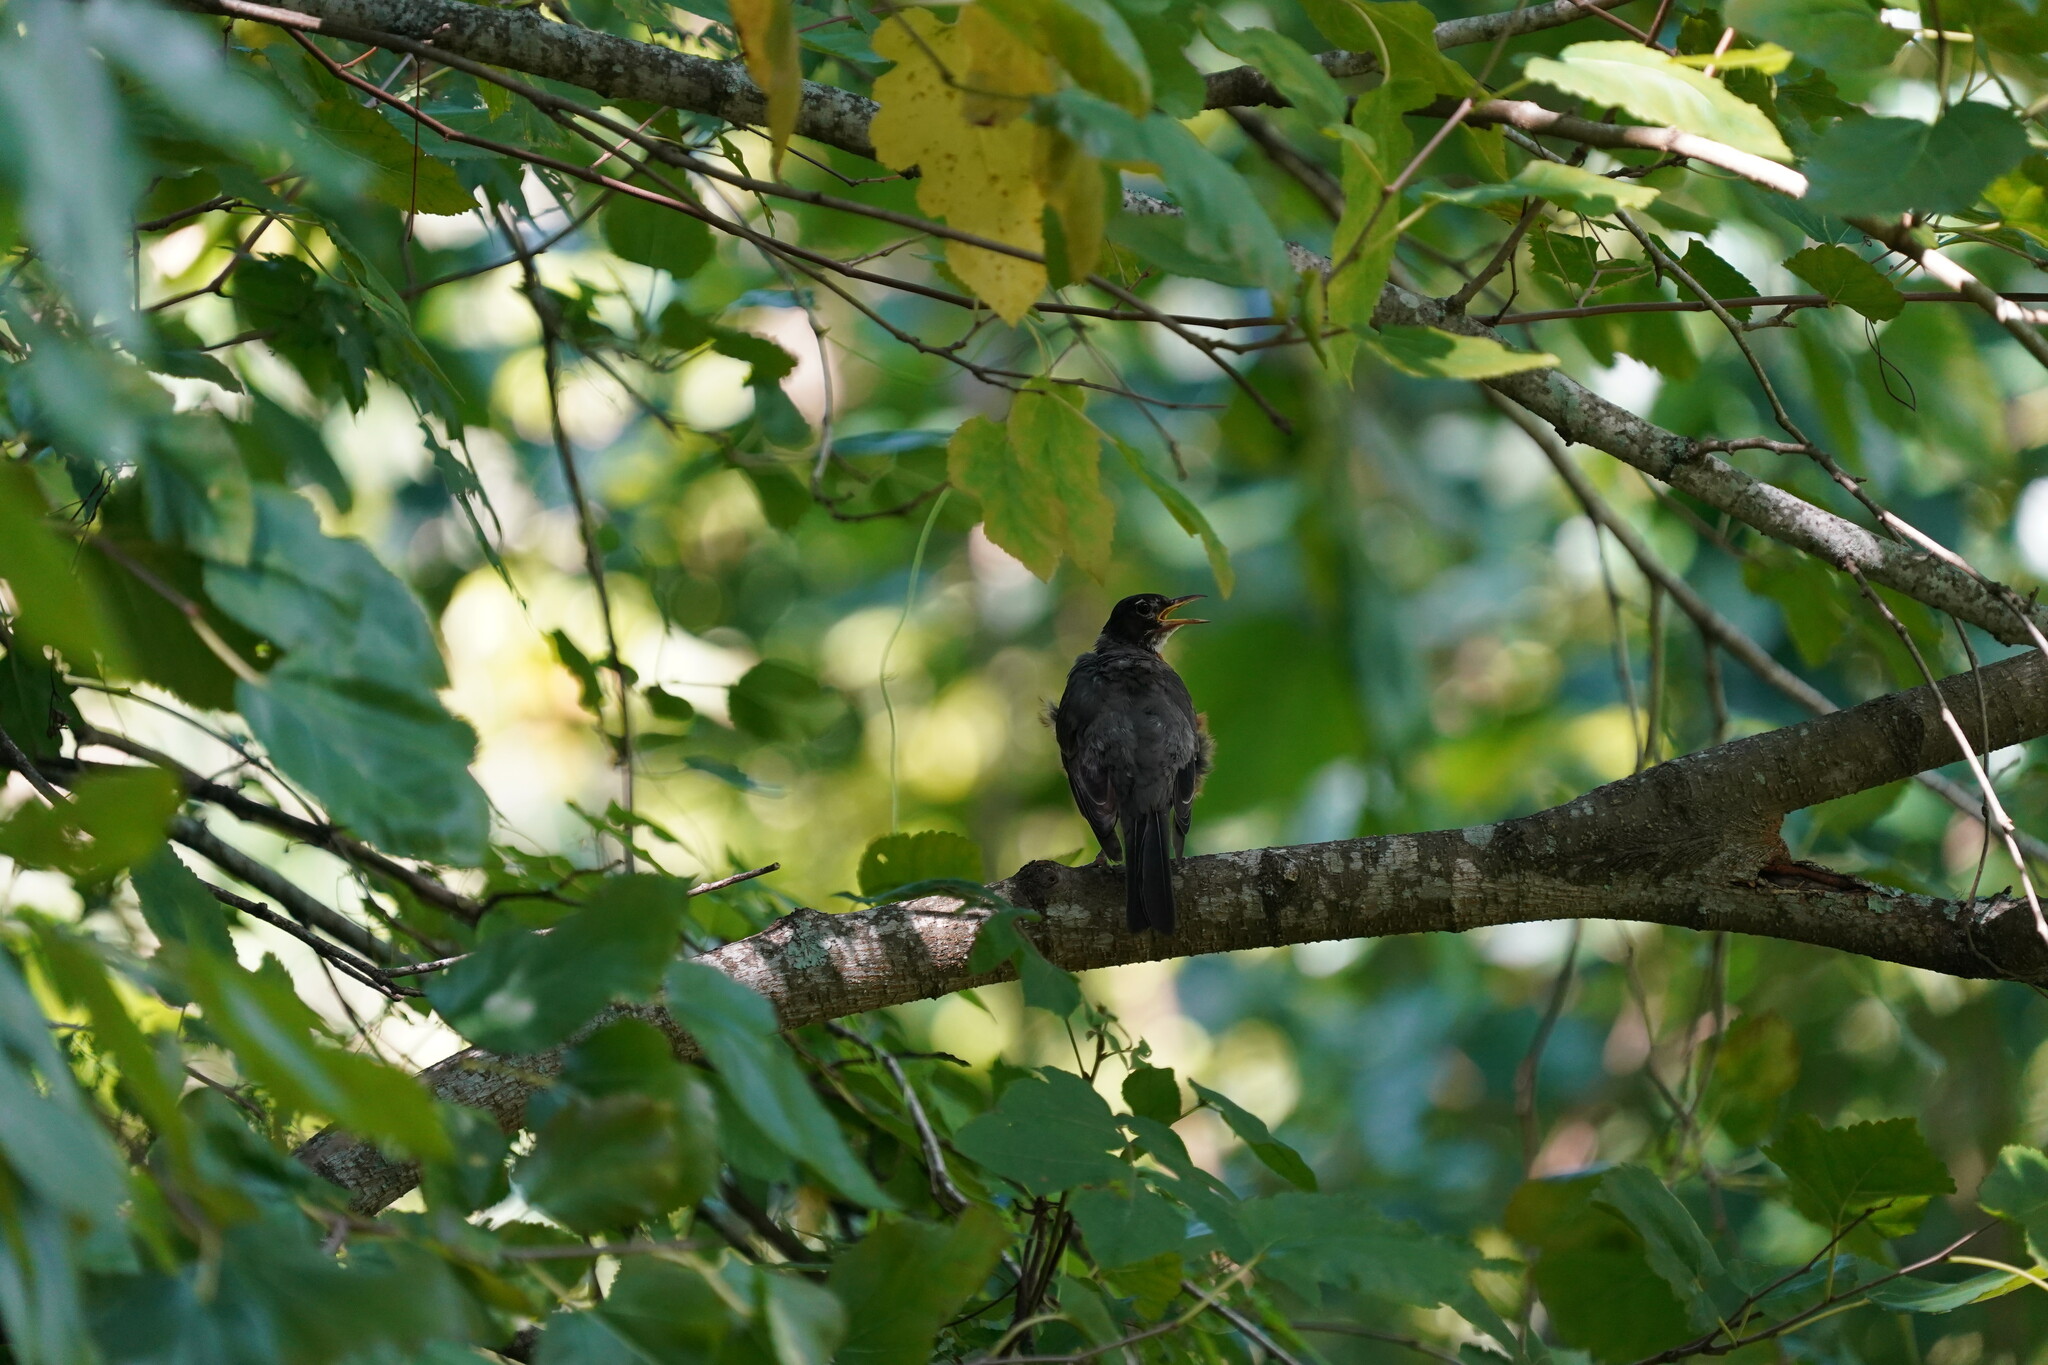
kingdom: Animalia
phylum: Chordata
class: Aves
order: Passeriformes
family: Turdidae
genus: Turdus
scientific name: Turdus migratorius
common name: American robin
